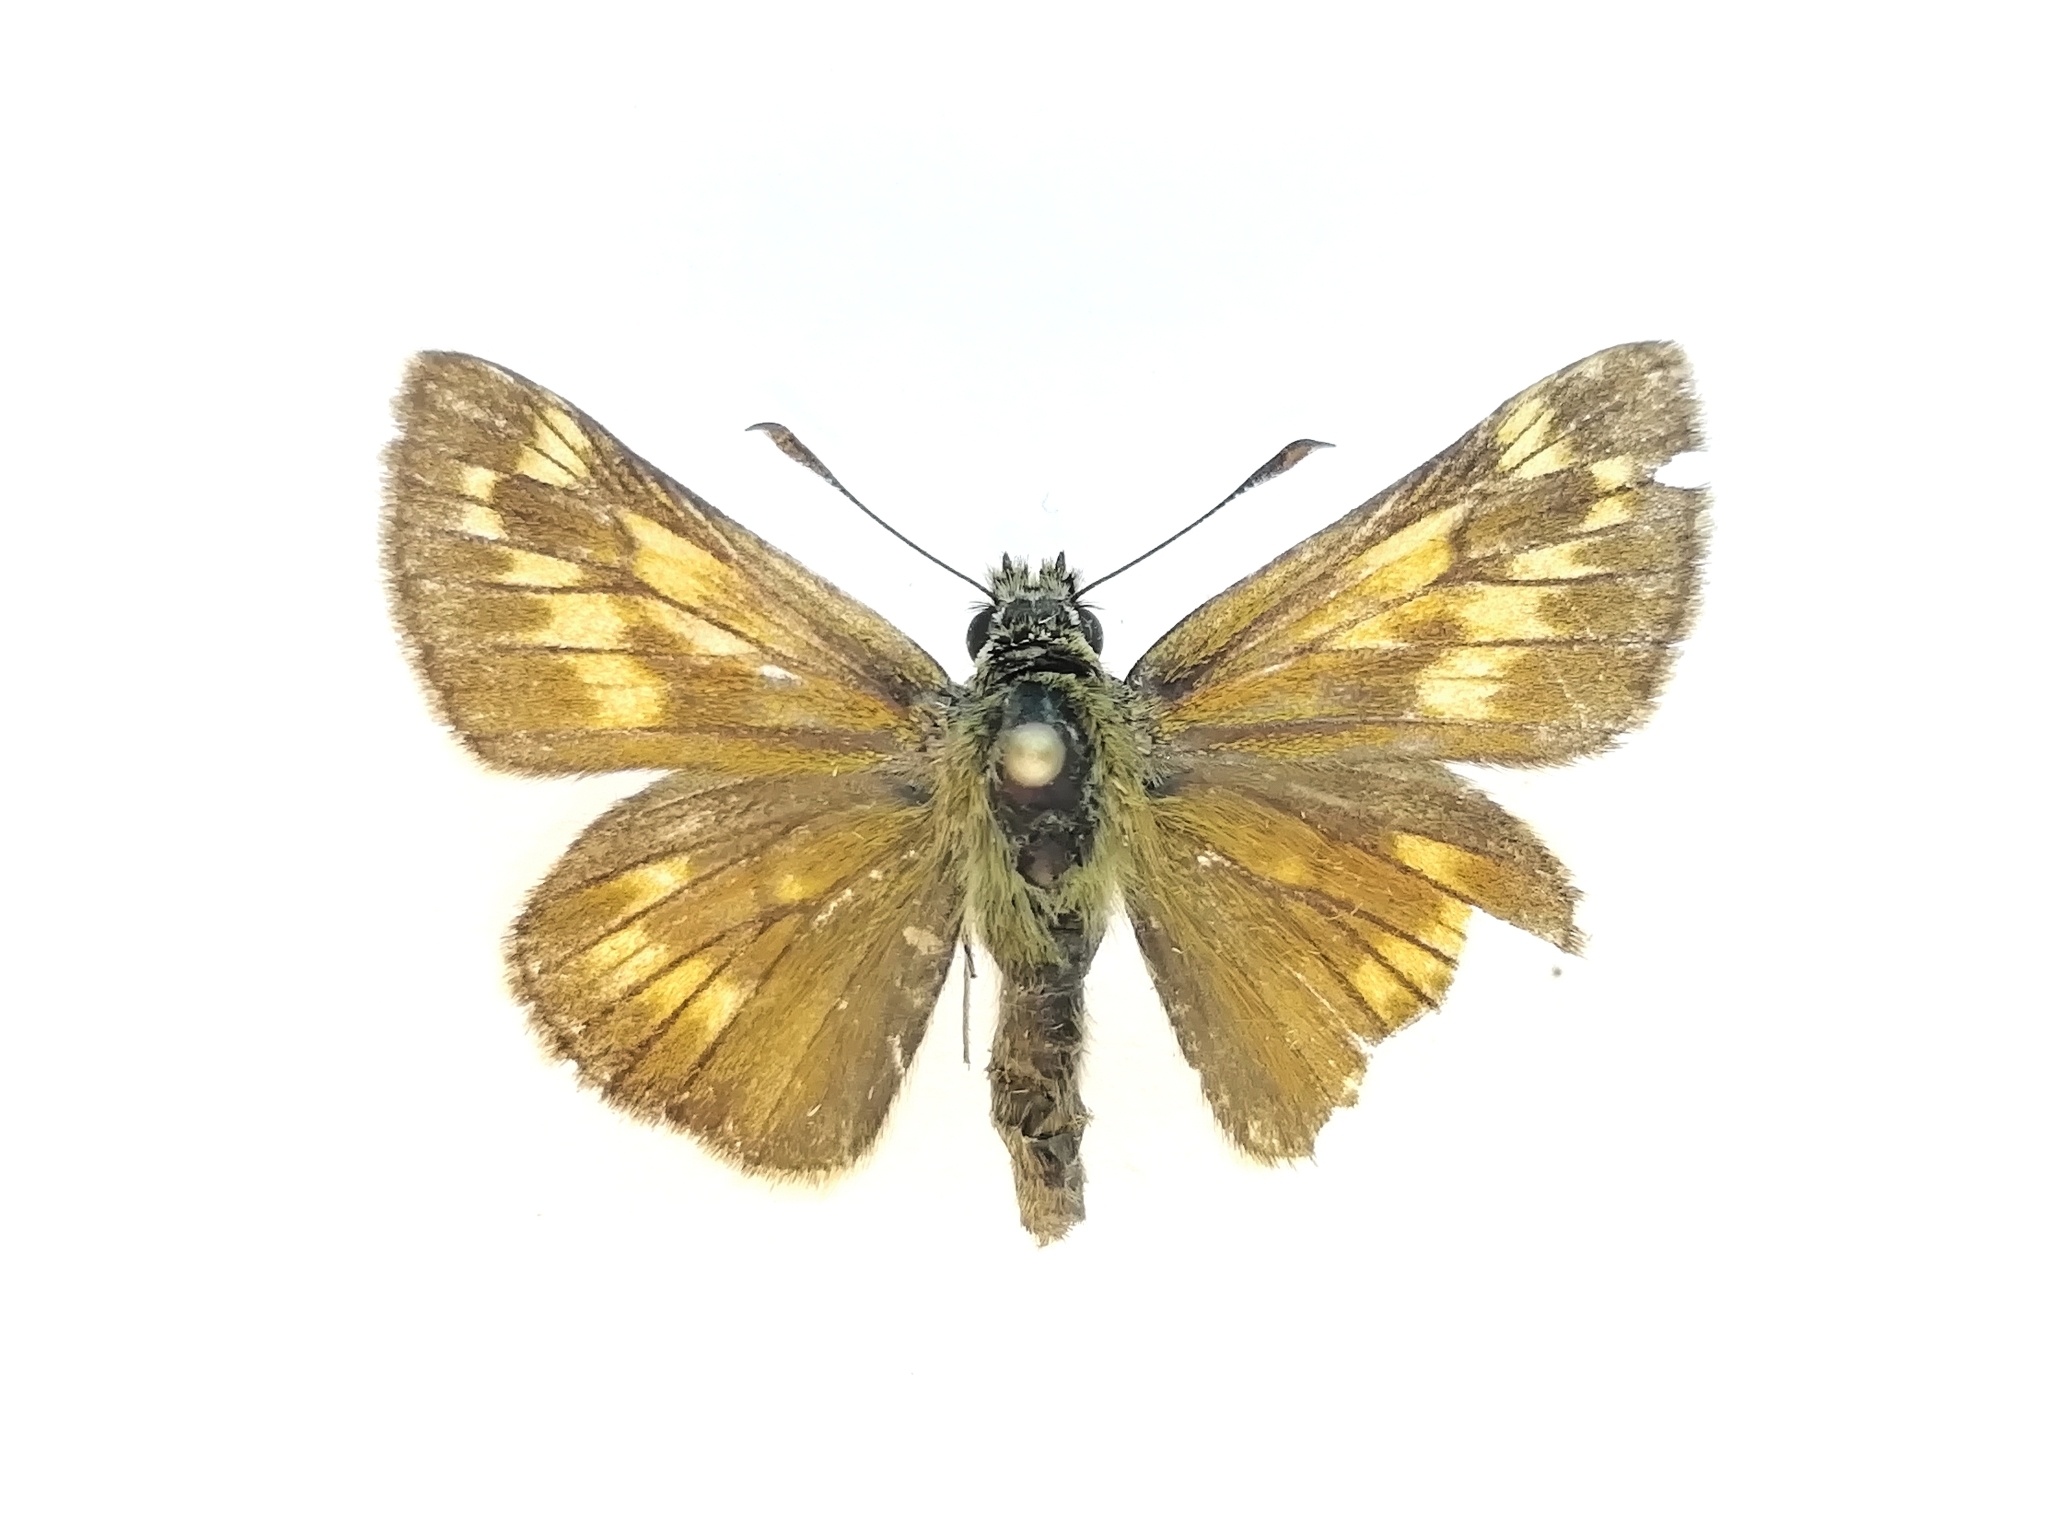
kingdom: Animalia
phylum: Arthropoda
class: Insecta
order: Lepidoptera
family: Hesperiidae
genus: Ochlodes
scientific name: Ochlodes venata
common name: Large skipper
